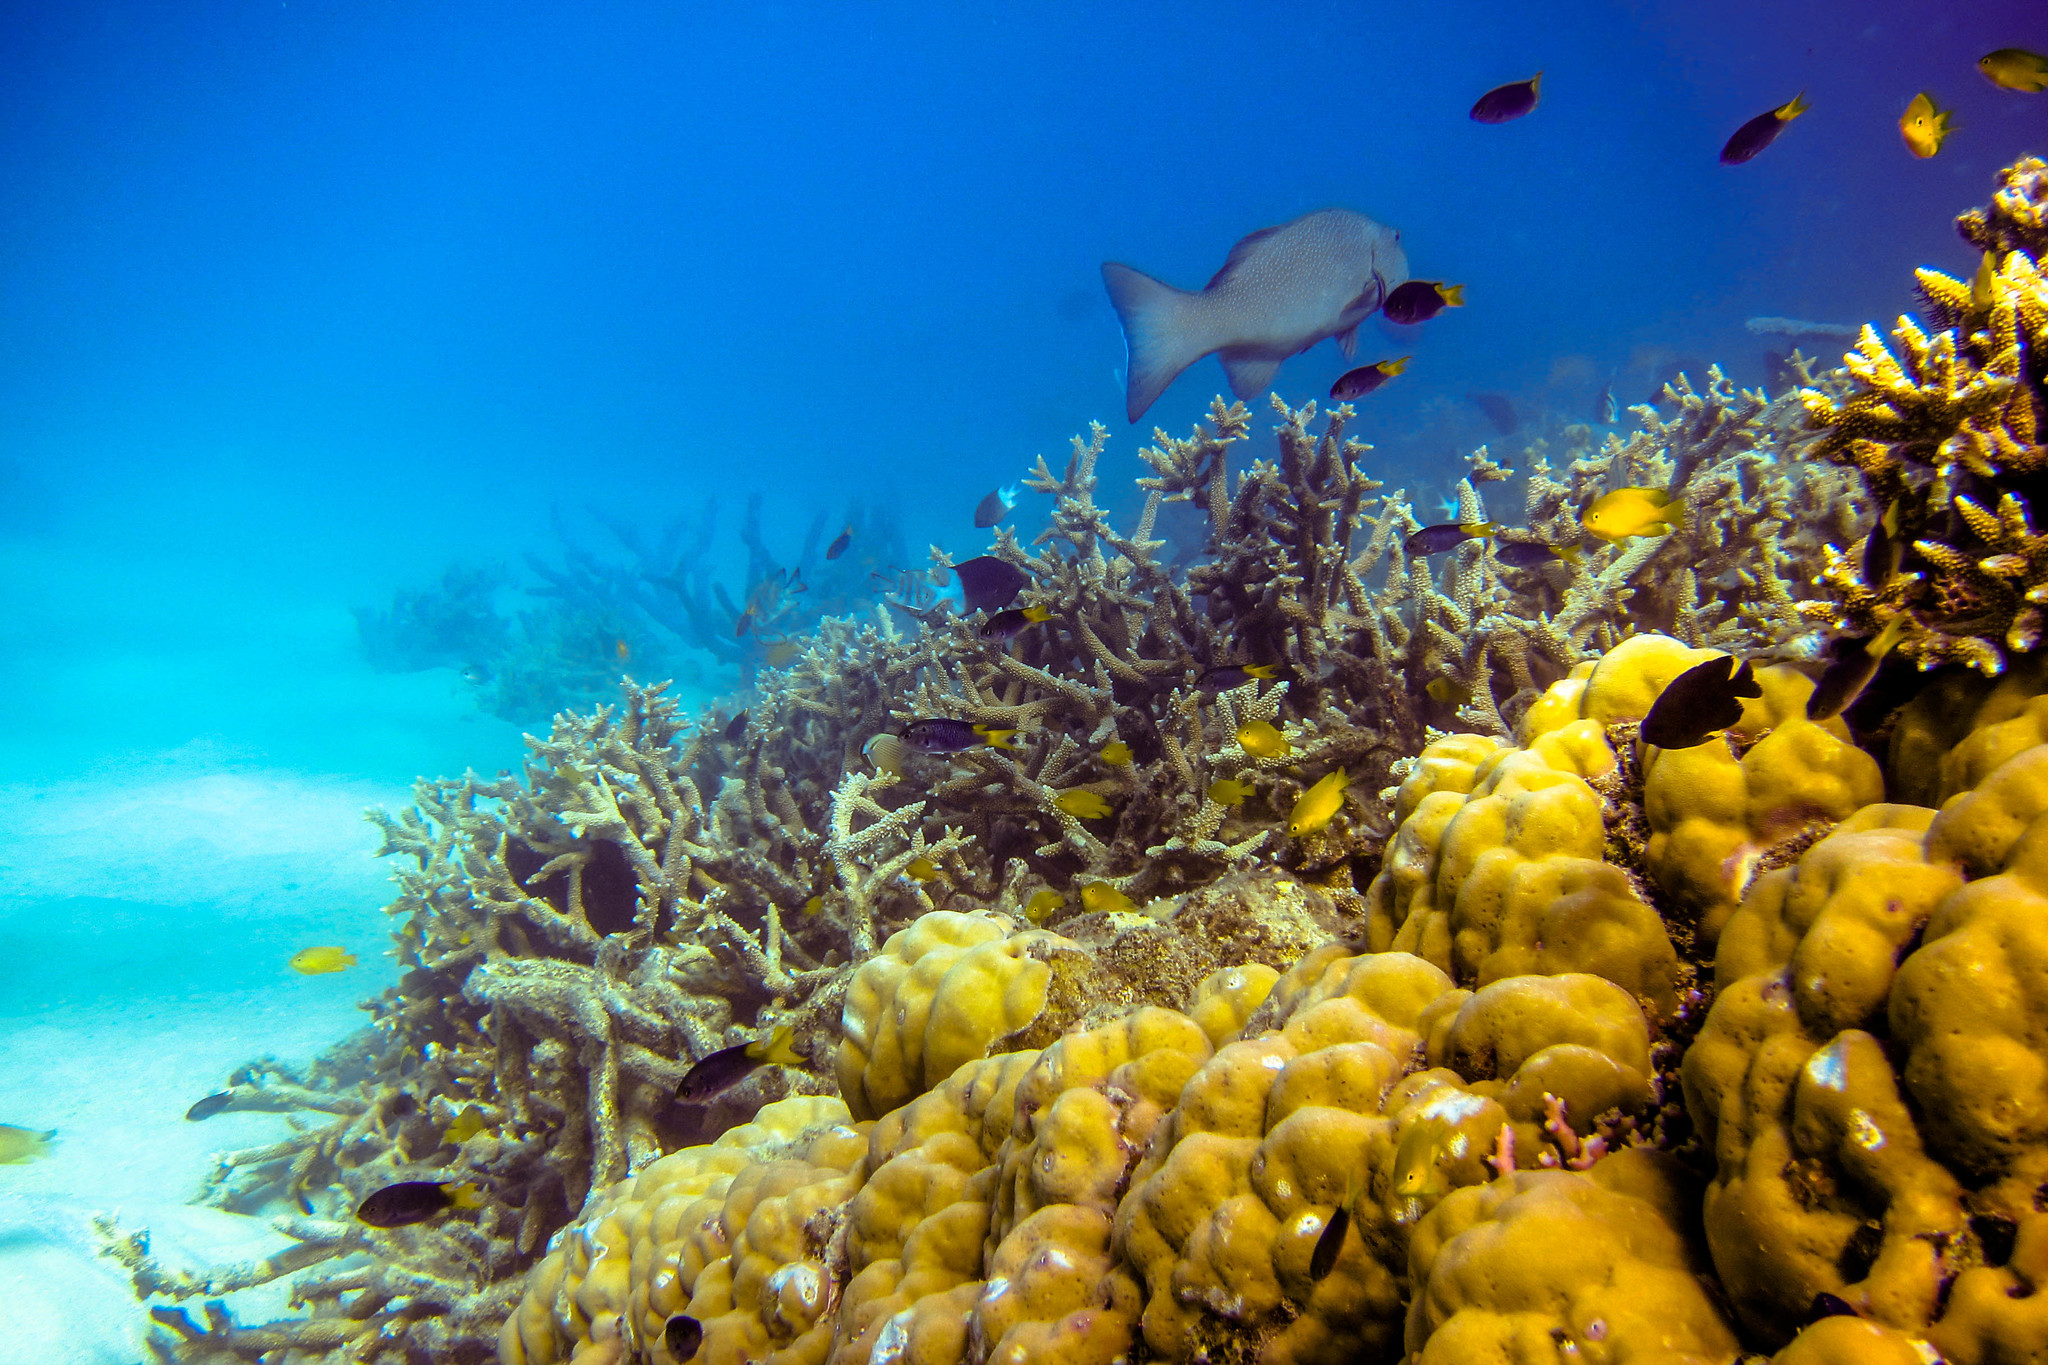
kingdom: Animalia
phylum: Chordata
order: Perciformes
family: Serranidae
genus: Plectropomus
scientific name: Plectropomus leopardus
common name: Coral trout
